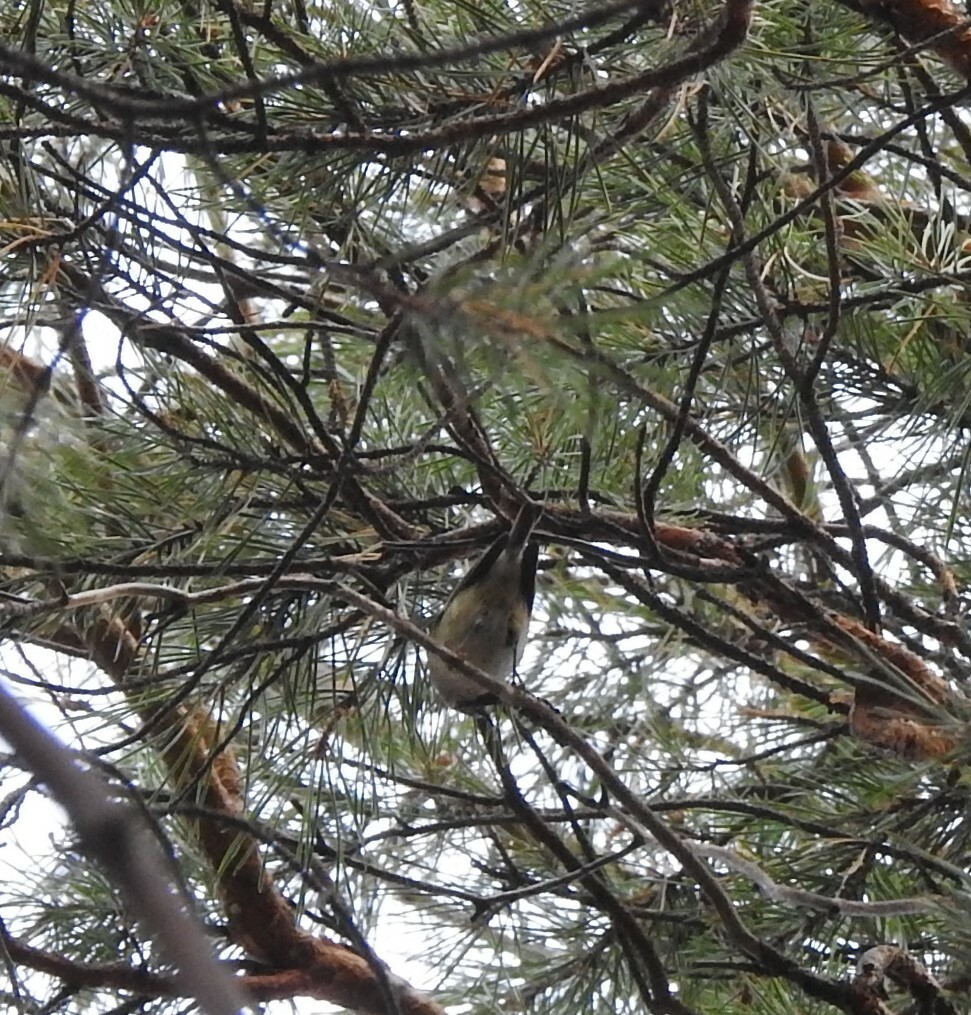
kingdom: Animalia
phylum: Chordata
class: Aves
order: Passeriformes
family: Regulidae
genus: Regulus
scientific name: Regulus regulus
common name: Goldcrest
